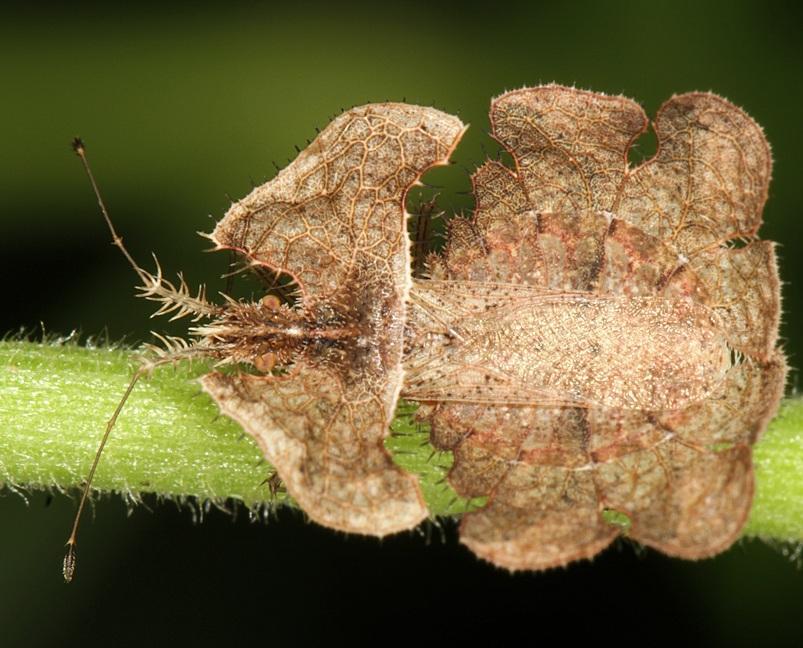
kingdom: Animalia
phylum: Arthropoda
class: Insecta
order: Hemiptera
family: Coreidae
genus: Tongorma
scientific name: Tongorma latreillii
